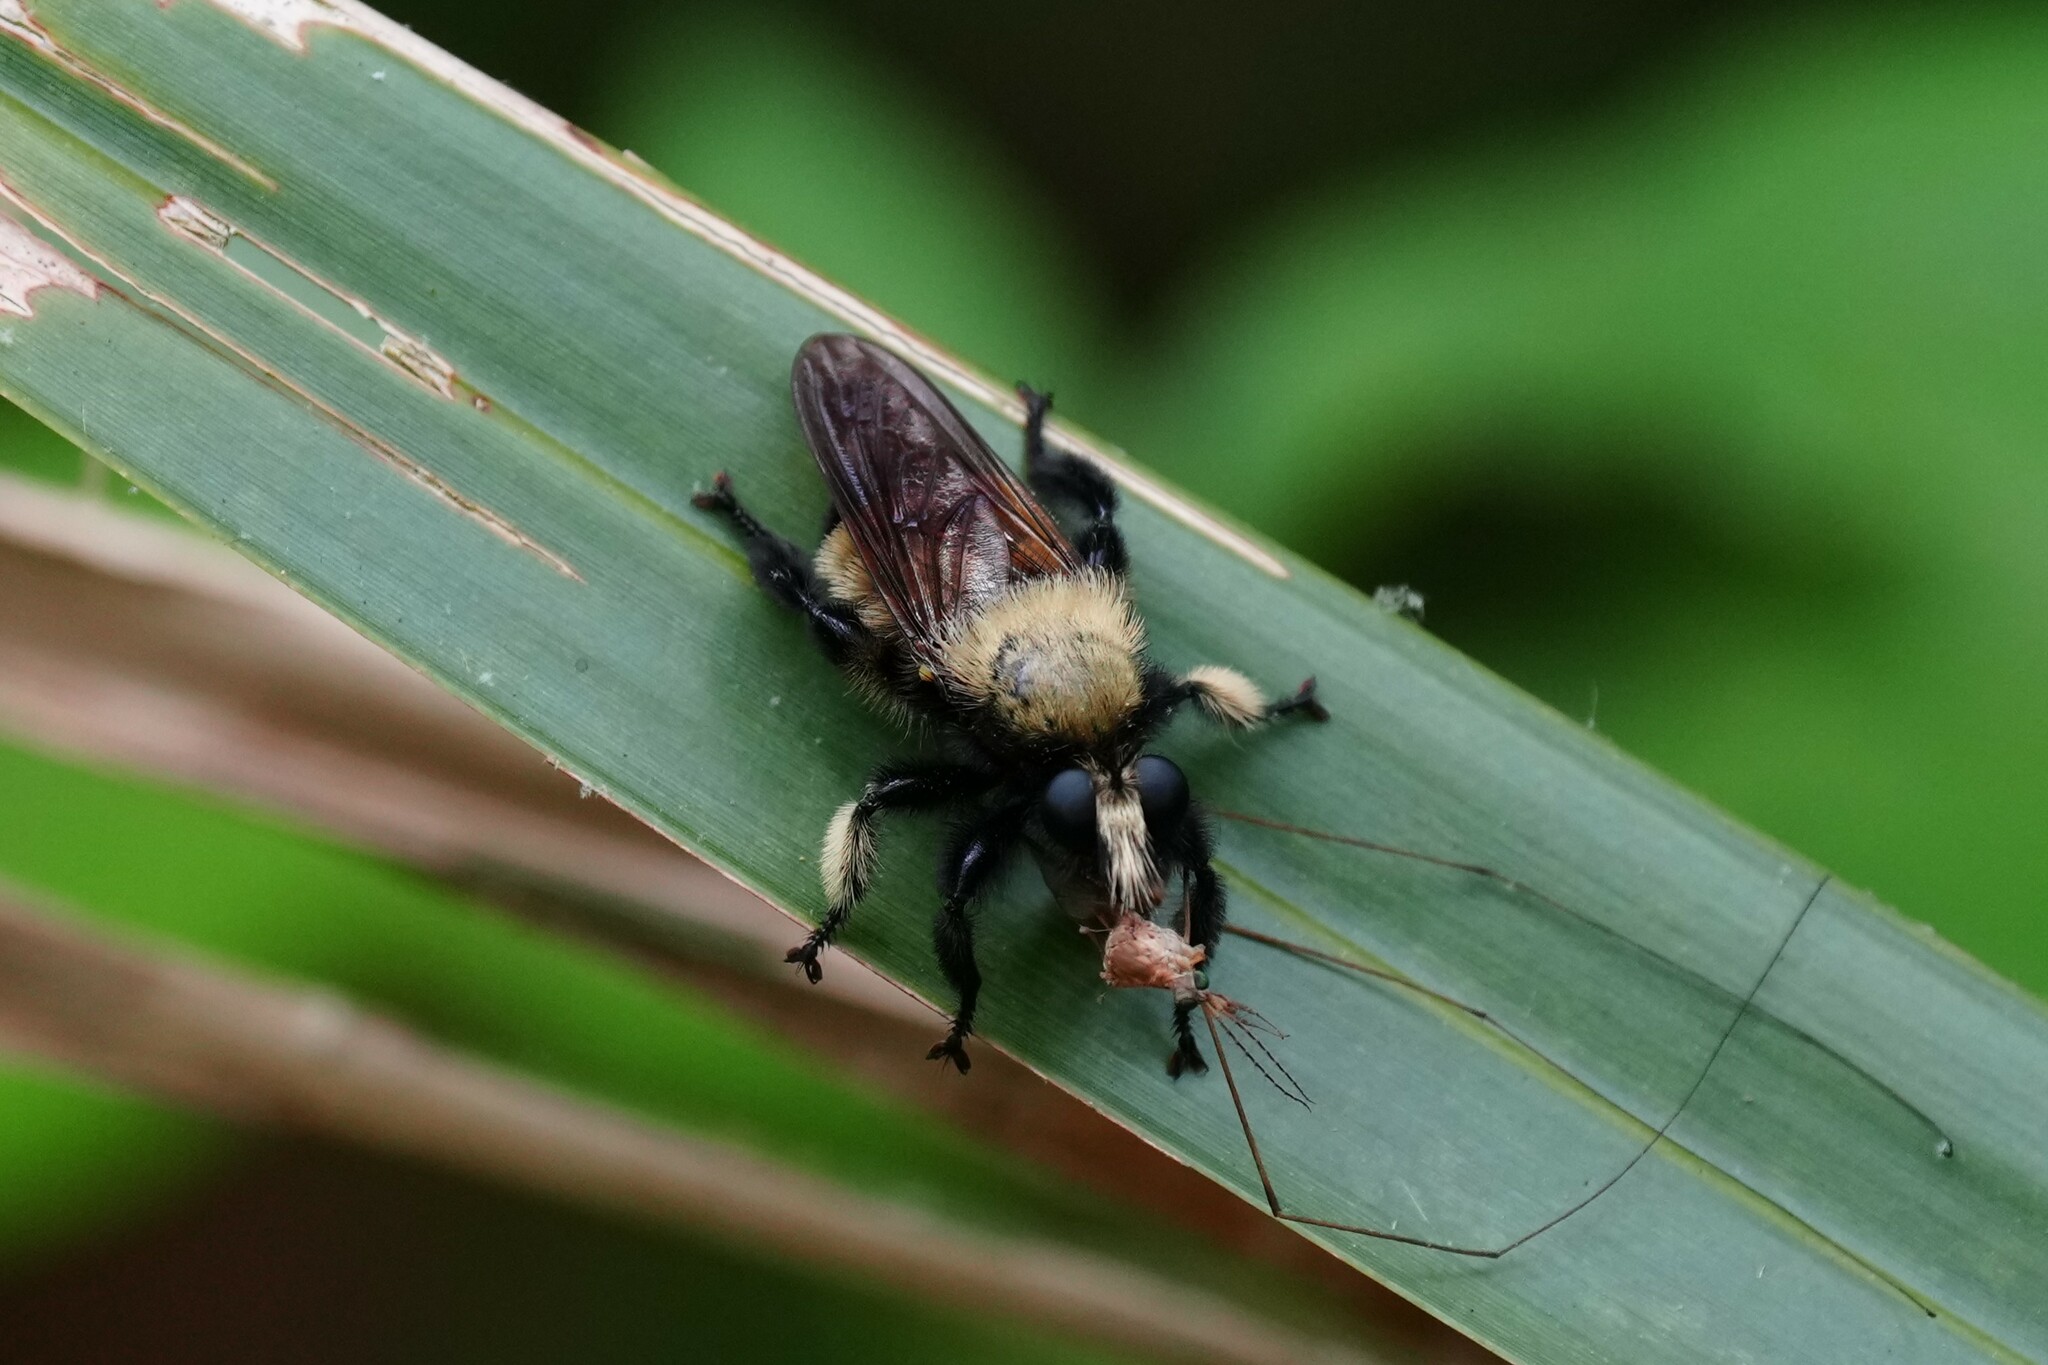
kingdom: Animalia
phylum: Arthropoda
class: Insecta
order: Diptera
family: Asilidae
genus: Laphria
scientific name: Laphria macquarti
